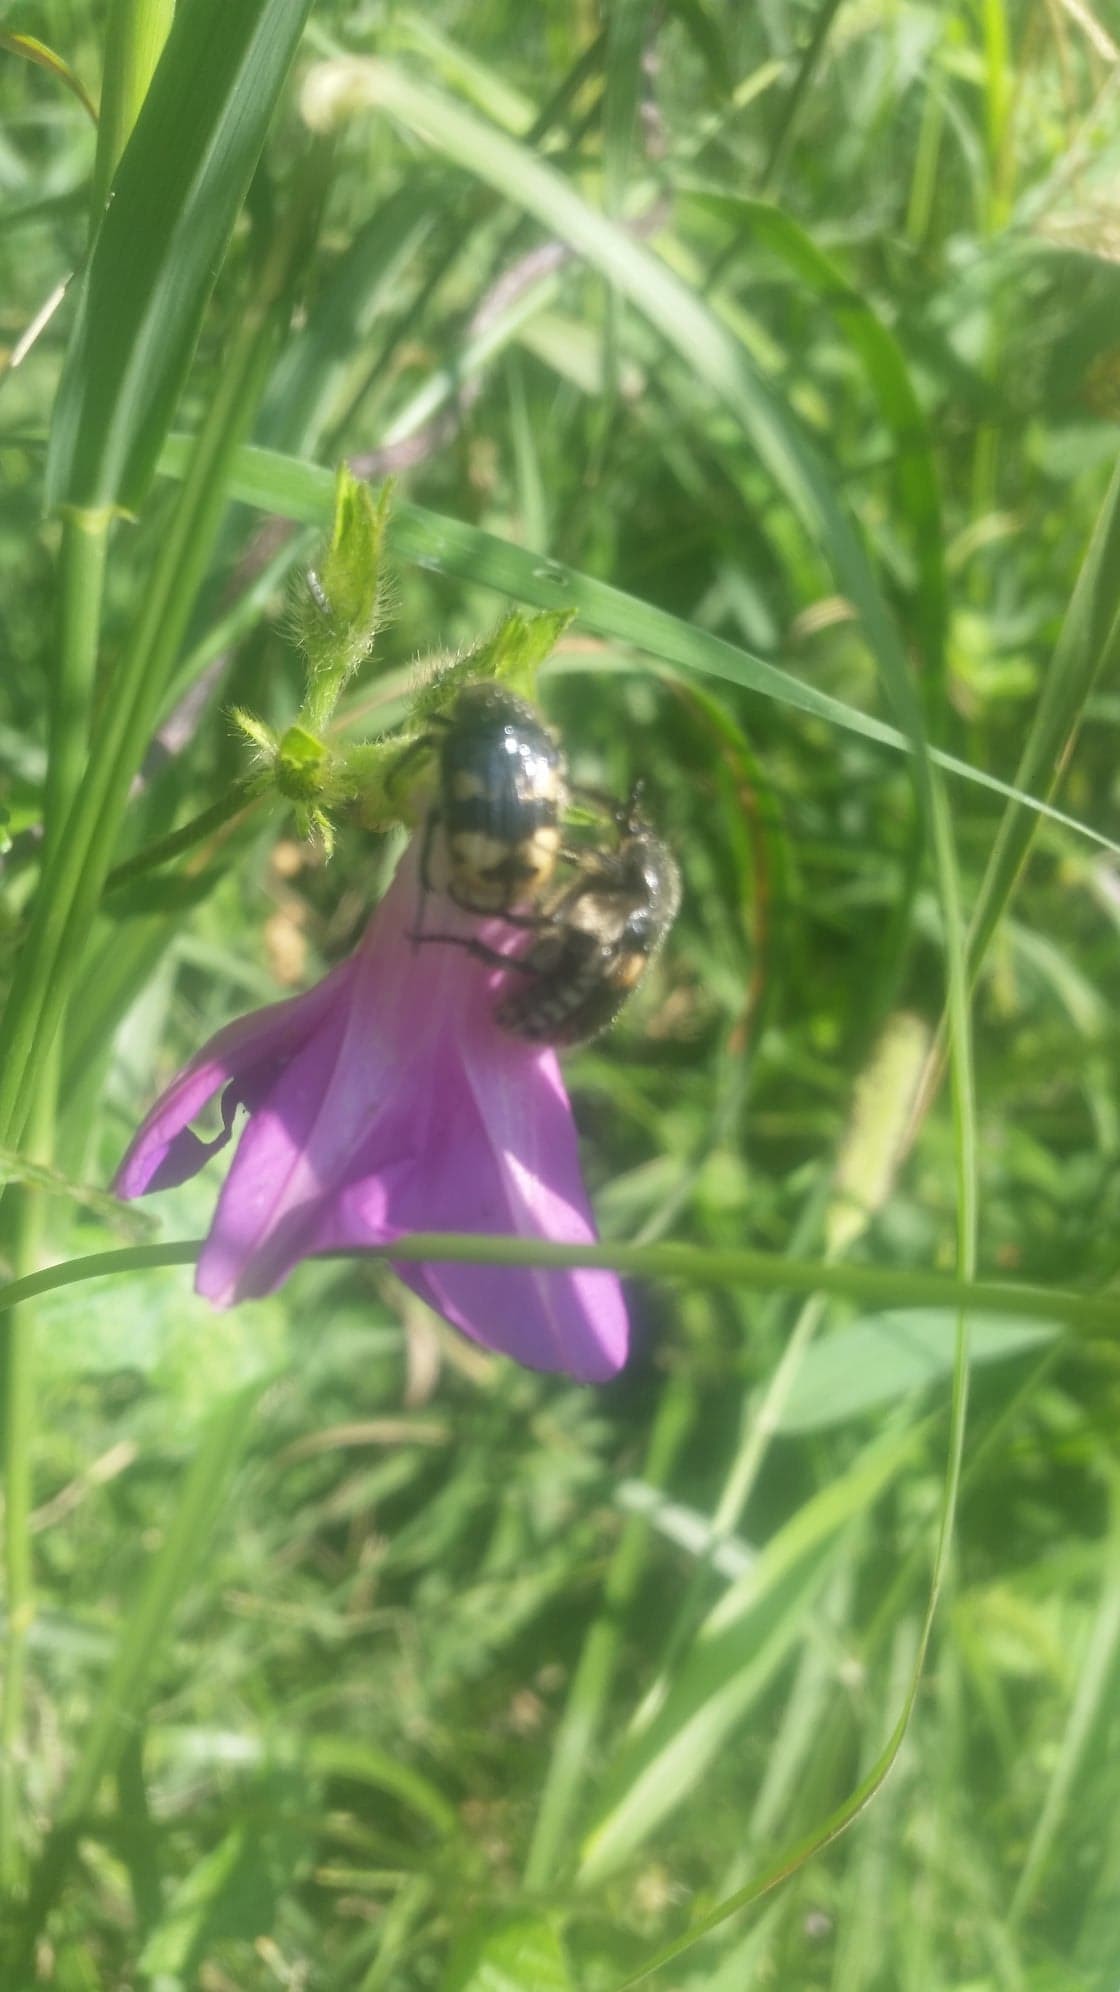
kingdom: Animalia
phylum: Arthropoda
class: Insecta
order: Coleoptera
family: Scarabaeidae
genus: Euphoria
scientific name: Euphoria basalis
